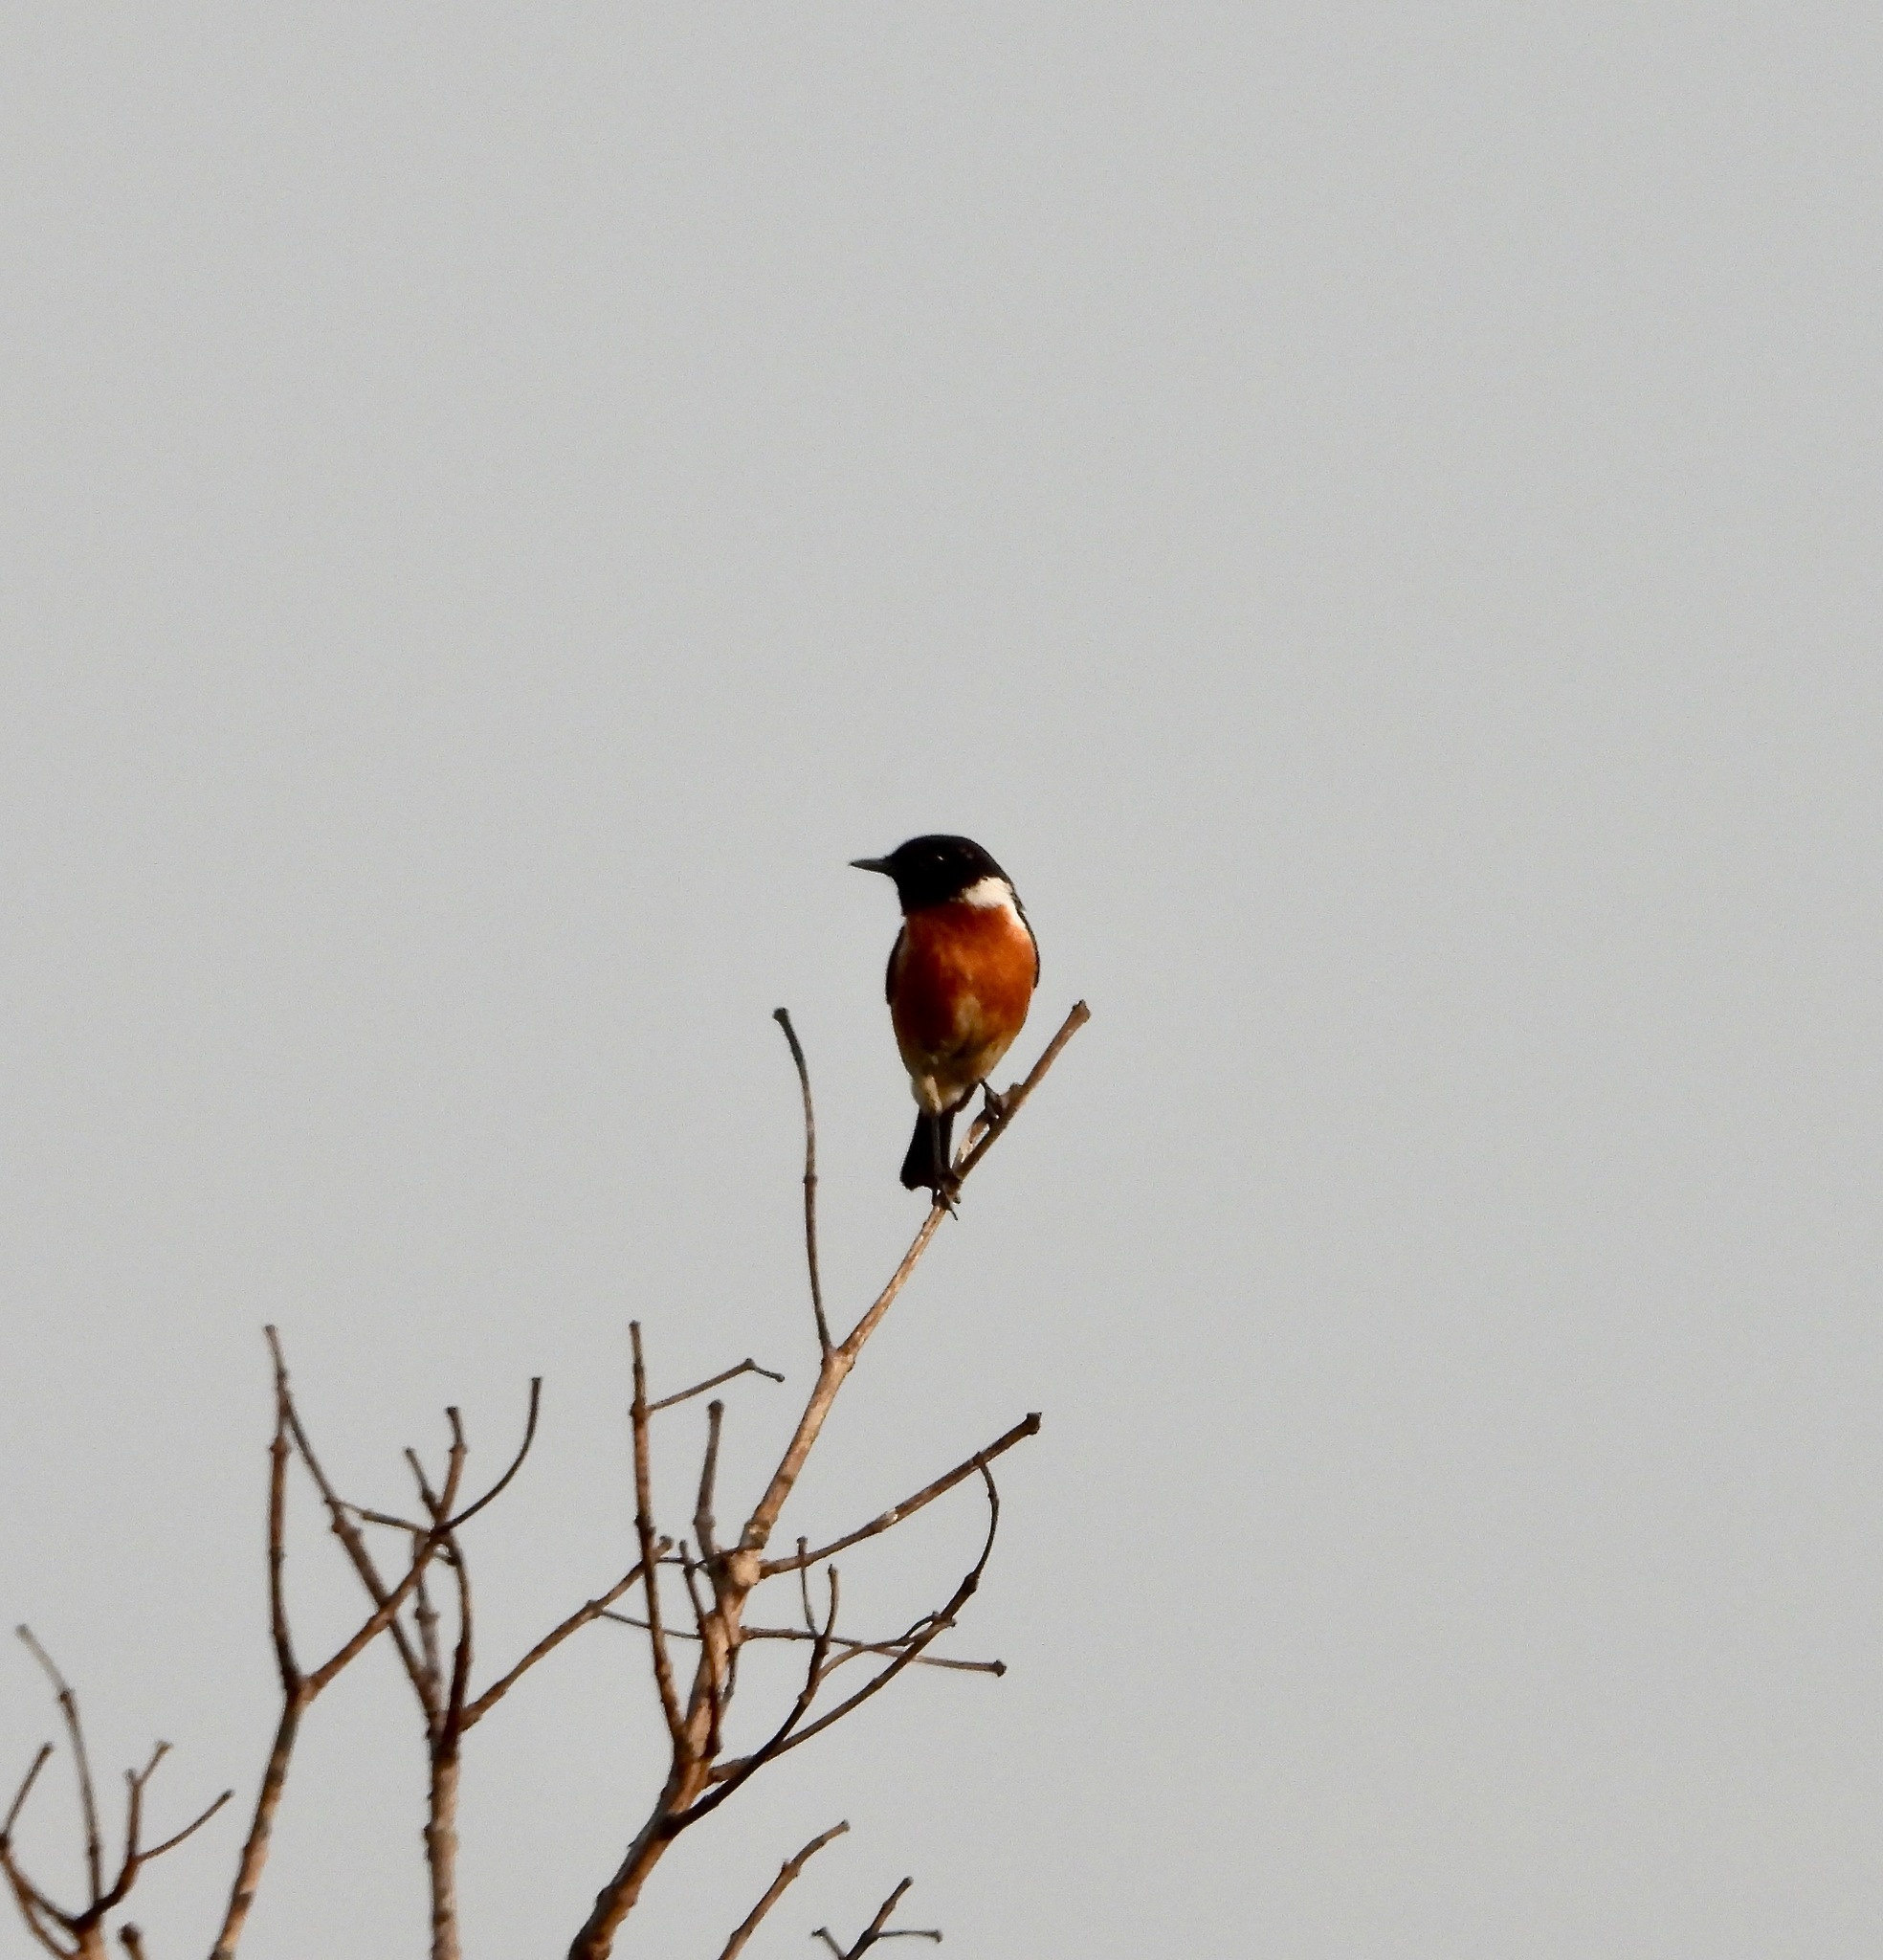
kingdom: Animalia
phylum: Chordata
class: Aves
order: Passeriformes
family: Muscicapidae
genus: Saxicola
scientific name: Saxicola torquatus
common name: African stonechat
